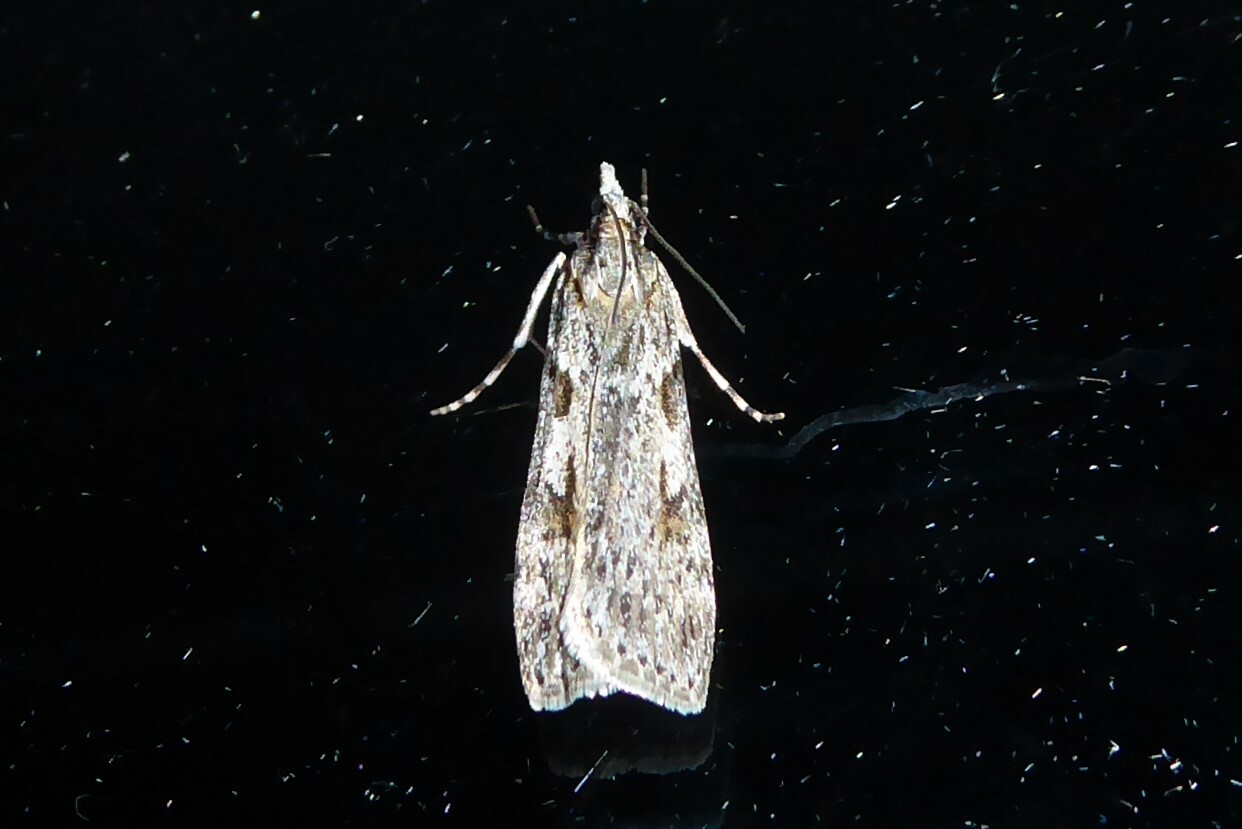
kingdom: Animalia
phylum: Arthropoda
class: Insecta
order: Lepidoptera
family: Crambidae
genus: Scoparia
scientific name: Scoparia halopis
